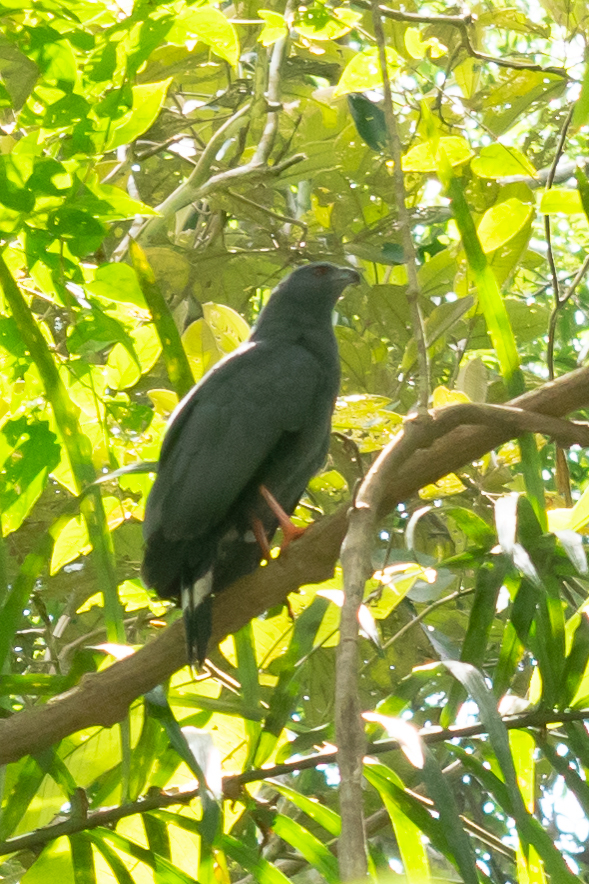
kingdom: Animalia
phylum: Chordata
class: Aves
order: Accipitriformes
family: Accipitridae
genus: Geranospiza
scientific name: Geranospiza caerulescens
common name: Crane hawk
